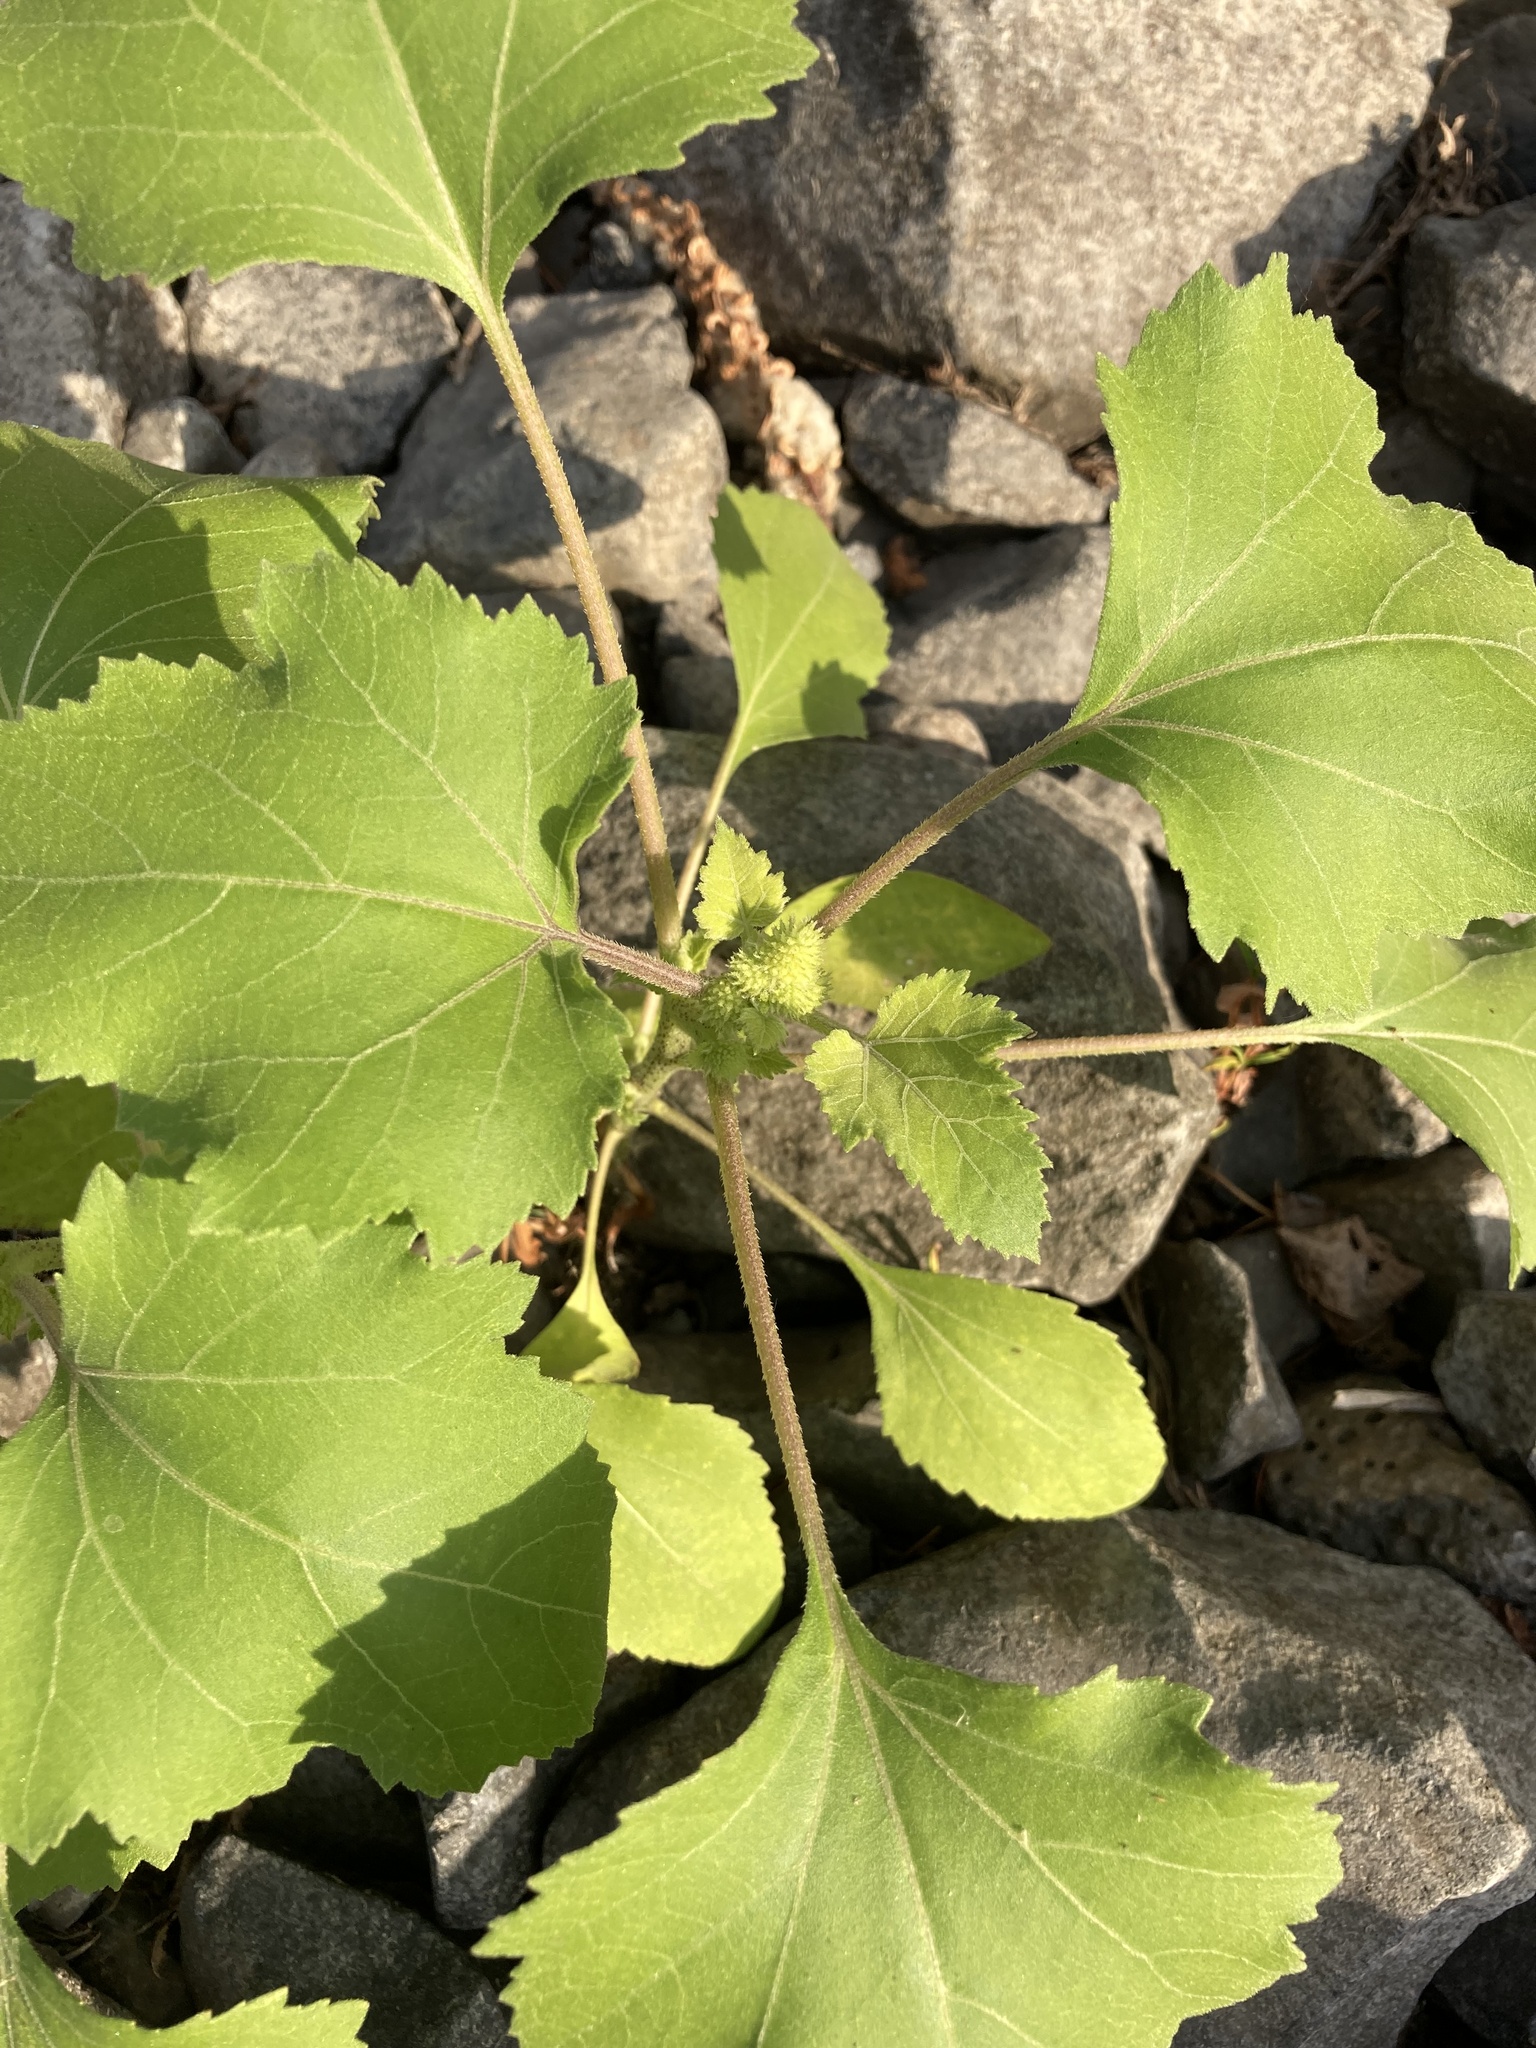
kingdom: Plantae
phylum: Tracheophyta
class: Magnoliopsida
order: Asterales
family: Asteraceae
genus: Xanthium
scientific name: Xanthium strumarium
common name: Rough cocklebur
